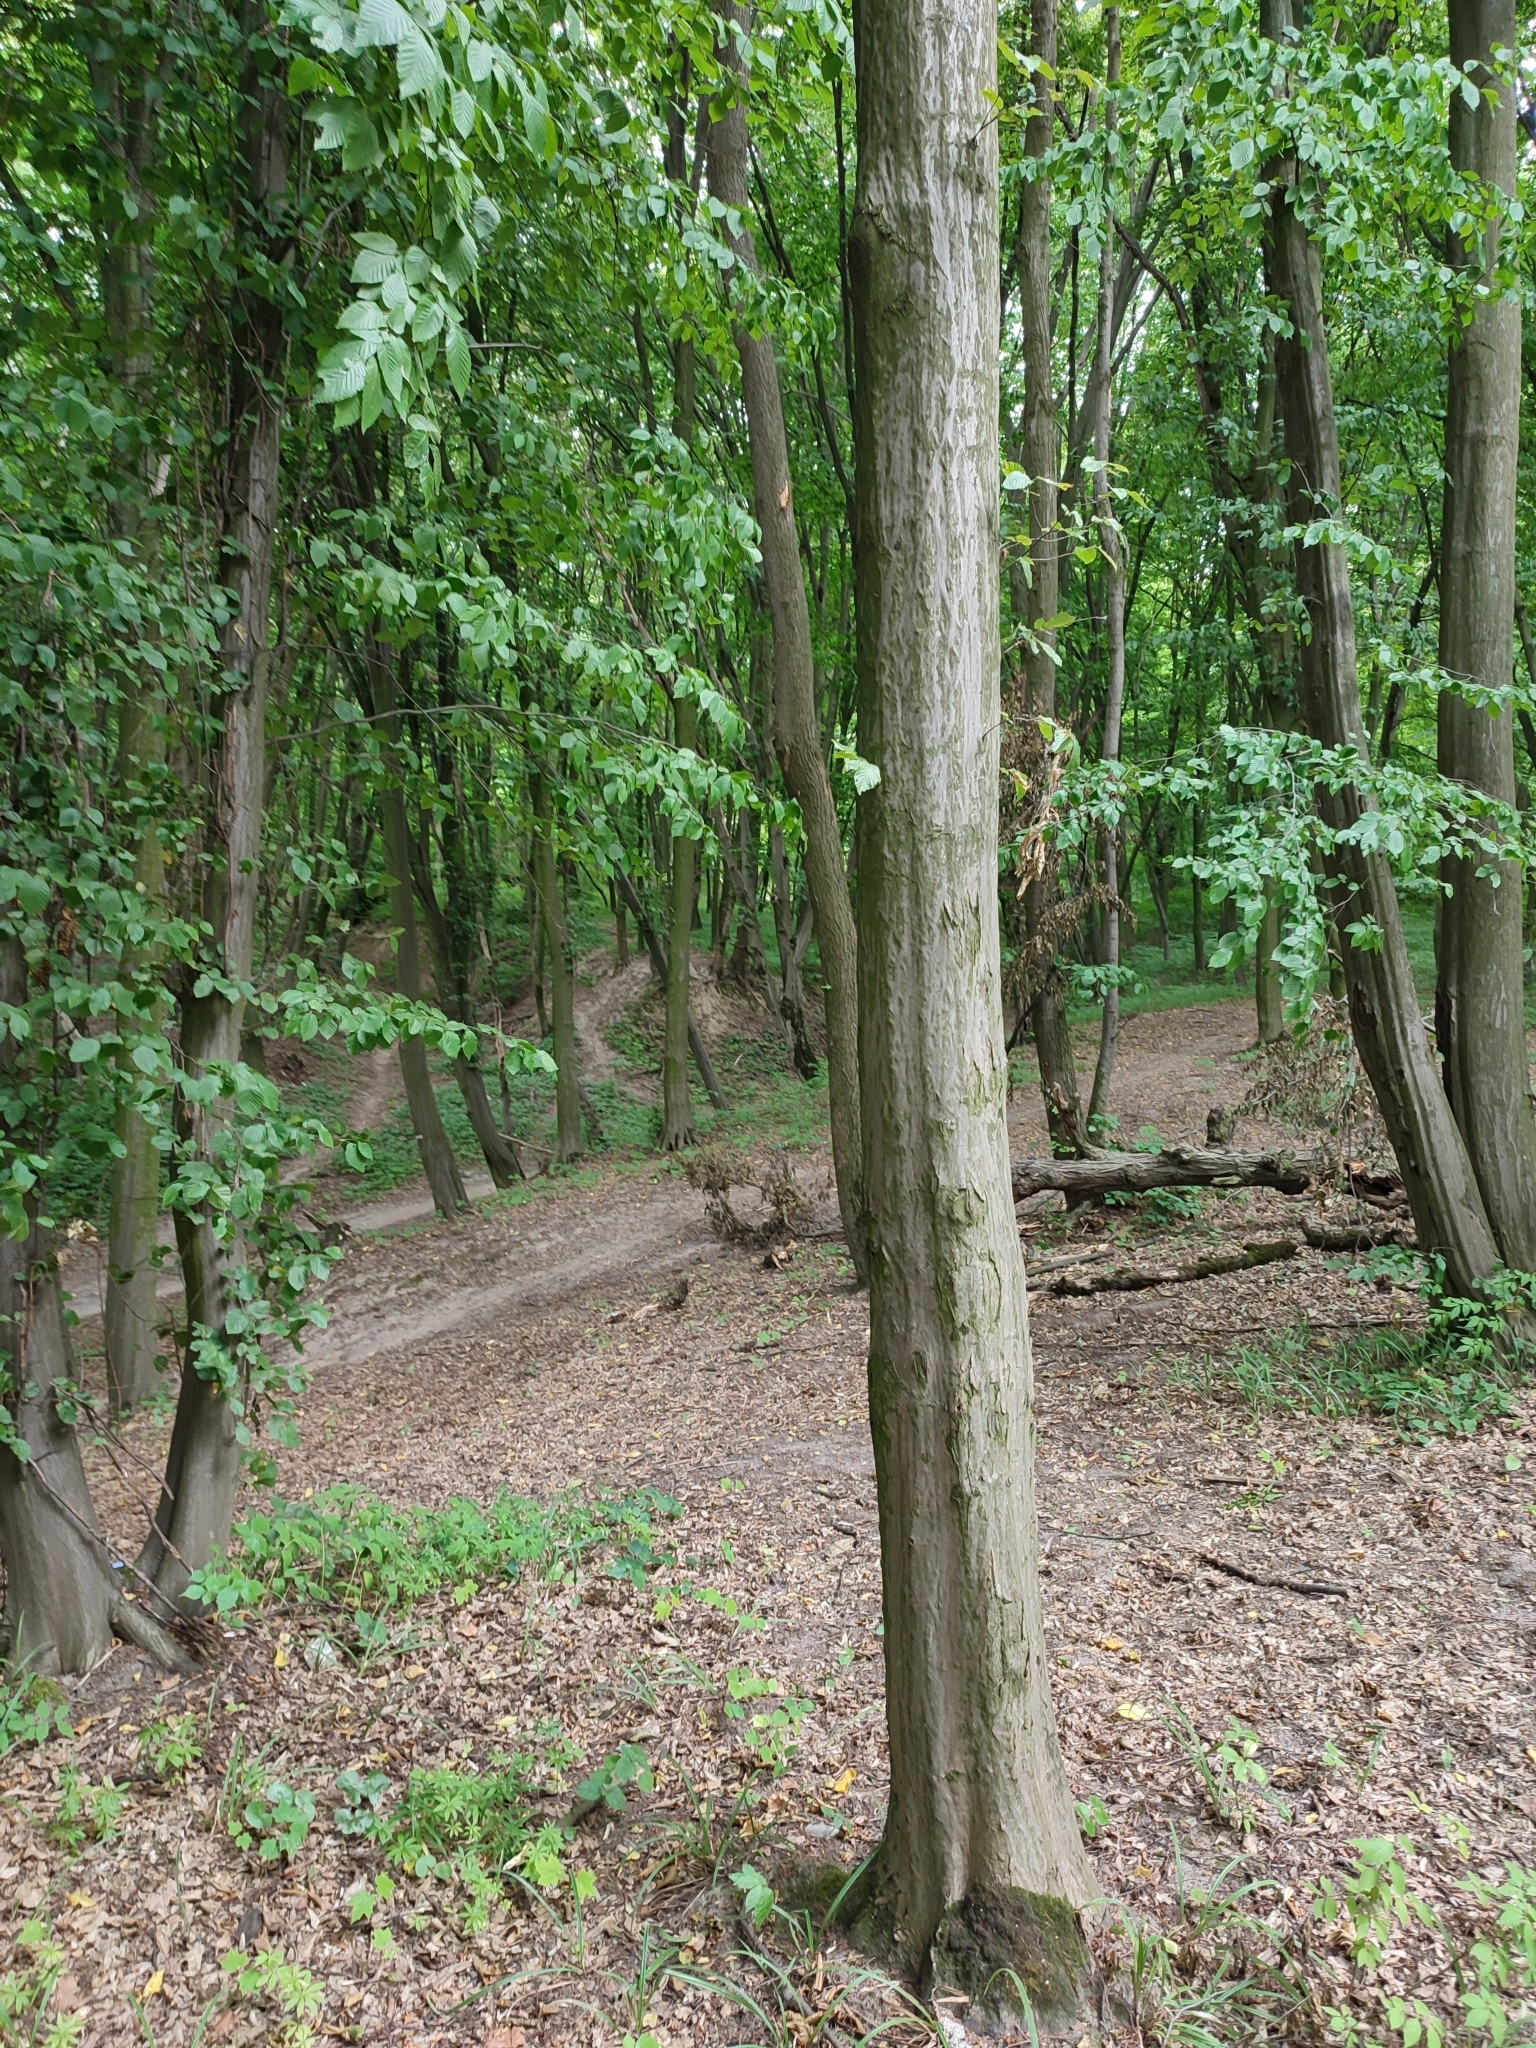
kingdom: Plantae
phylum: Tracheophyta
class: Magnoliopsida
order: Fagales
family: Betulaceae
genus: Carpinus
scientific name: Carpinus betulus
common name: Hornbeam
